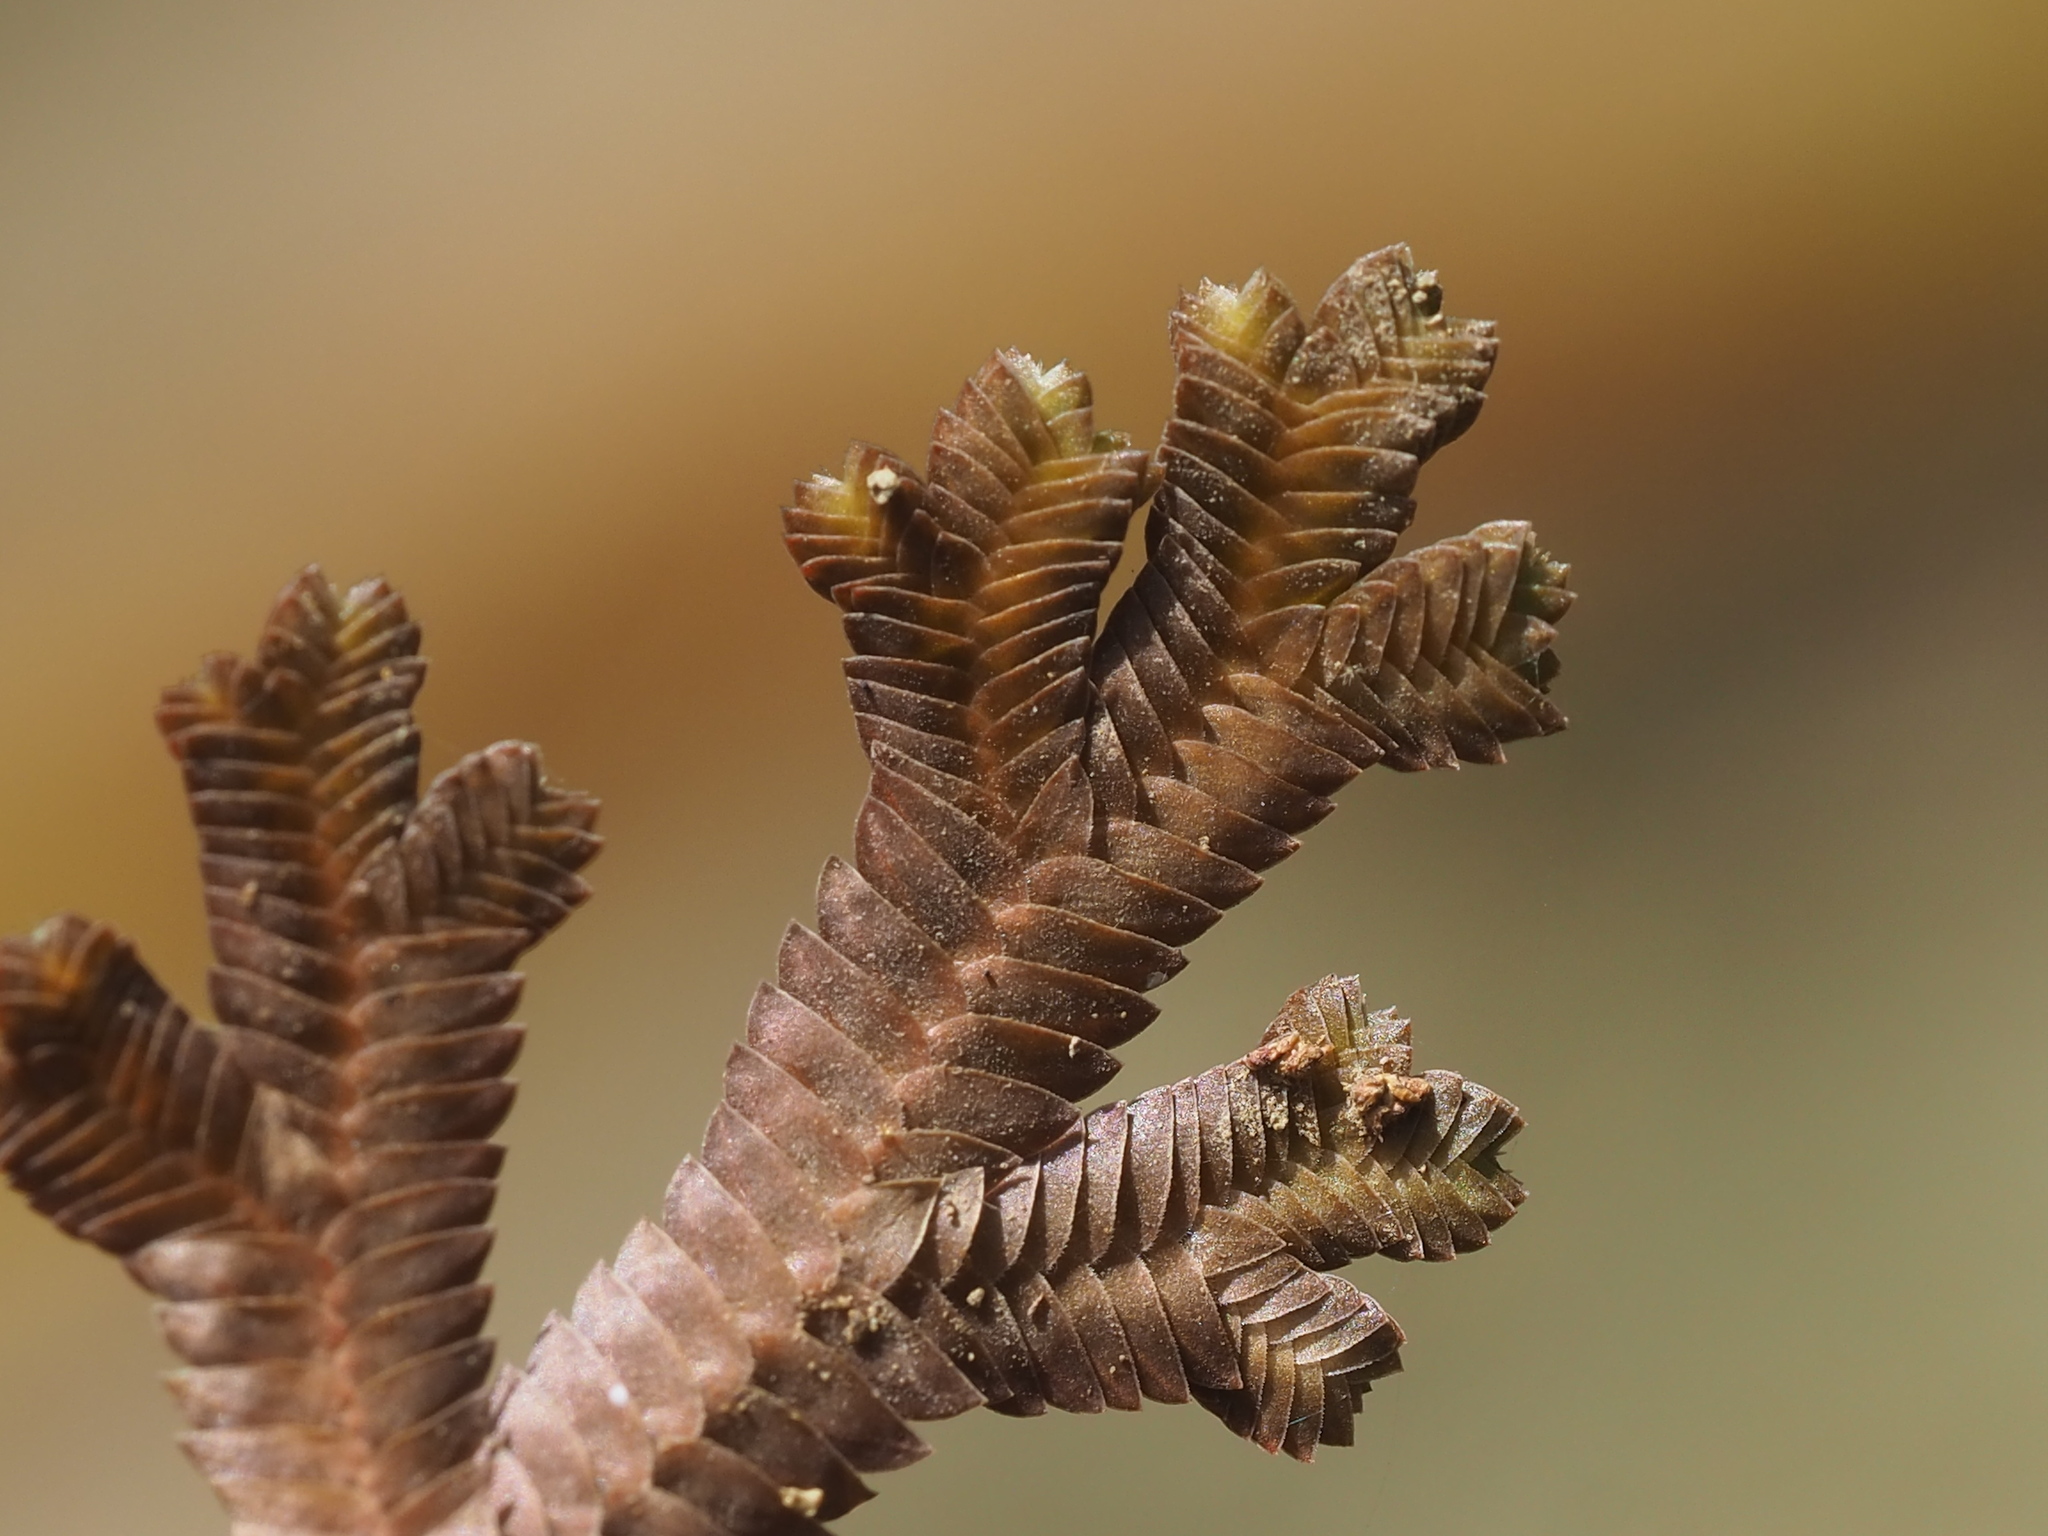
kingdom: Plantae
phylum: Tracheophyta
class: Lycopodiopsida
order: Selaginellales
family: Selaginellaceae
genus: Selaginella
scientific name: Selaginella repanda
